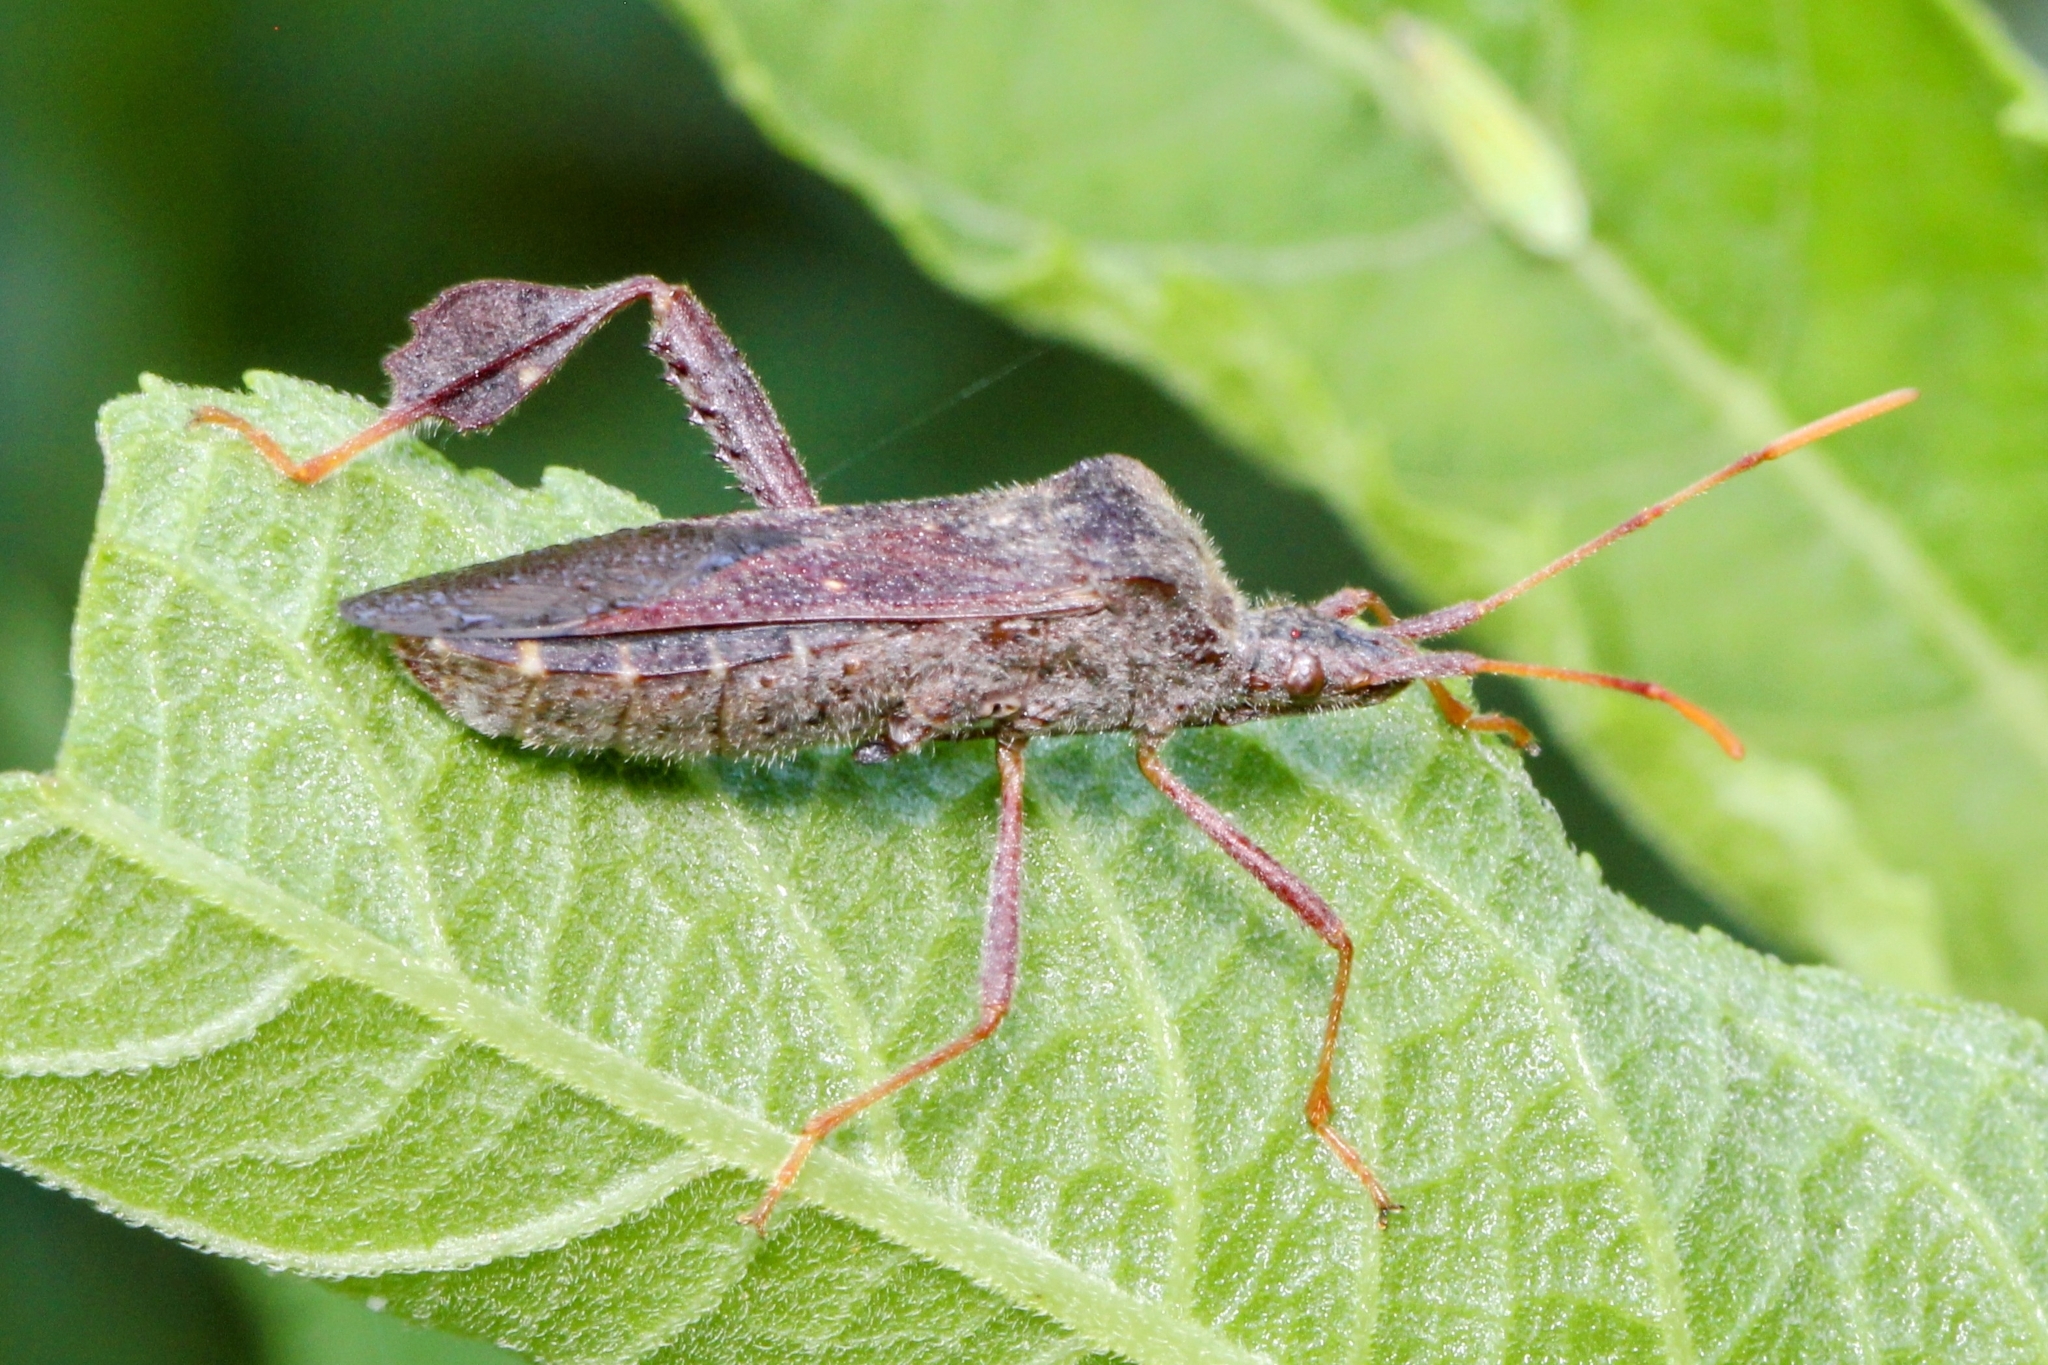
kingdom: Animalia
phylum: Arthropoda
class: Insecta
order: Hemiptera
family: Coreidae
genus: Leptoglossus
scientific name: Leptoglossus oppositus
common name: Northern leaf-footed bug
